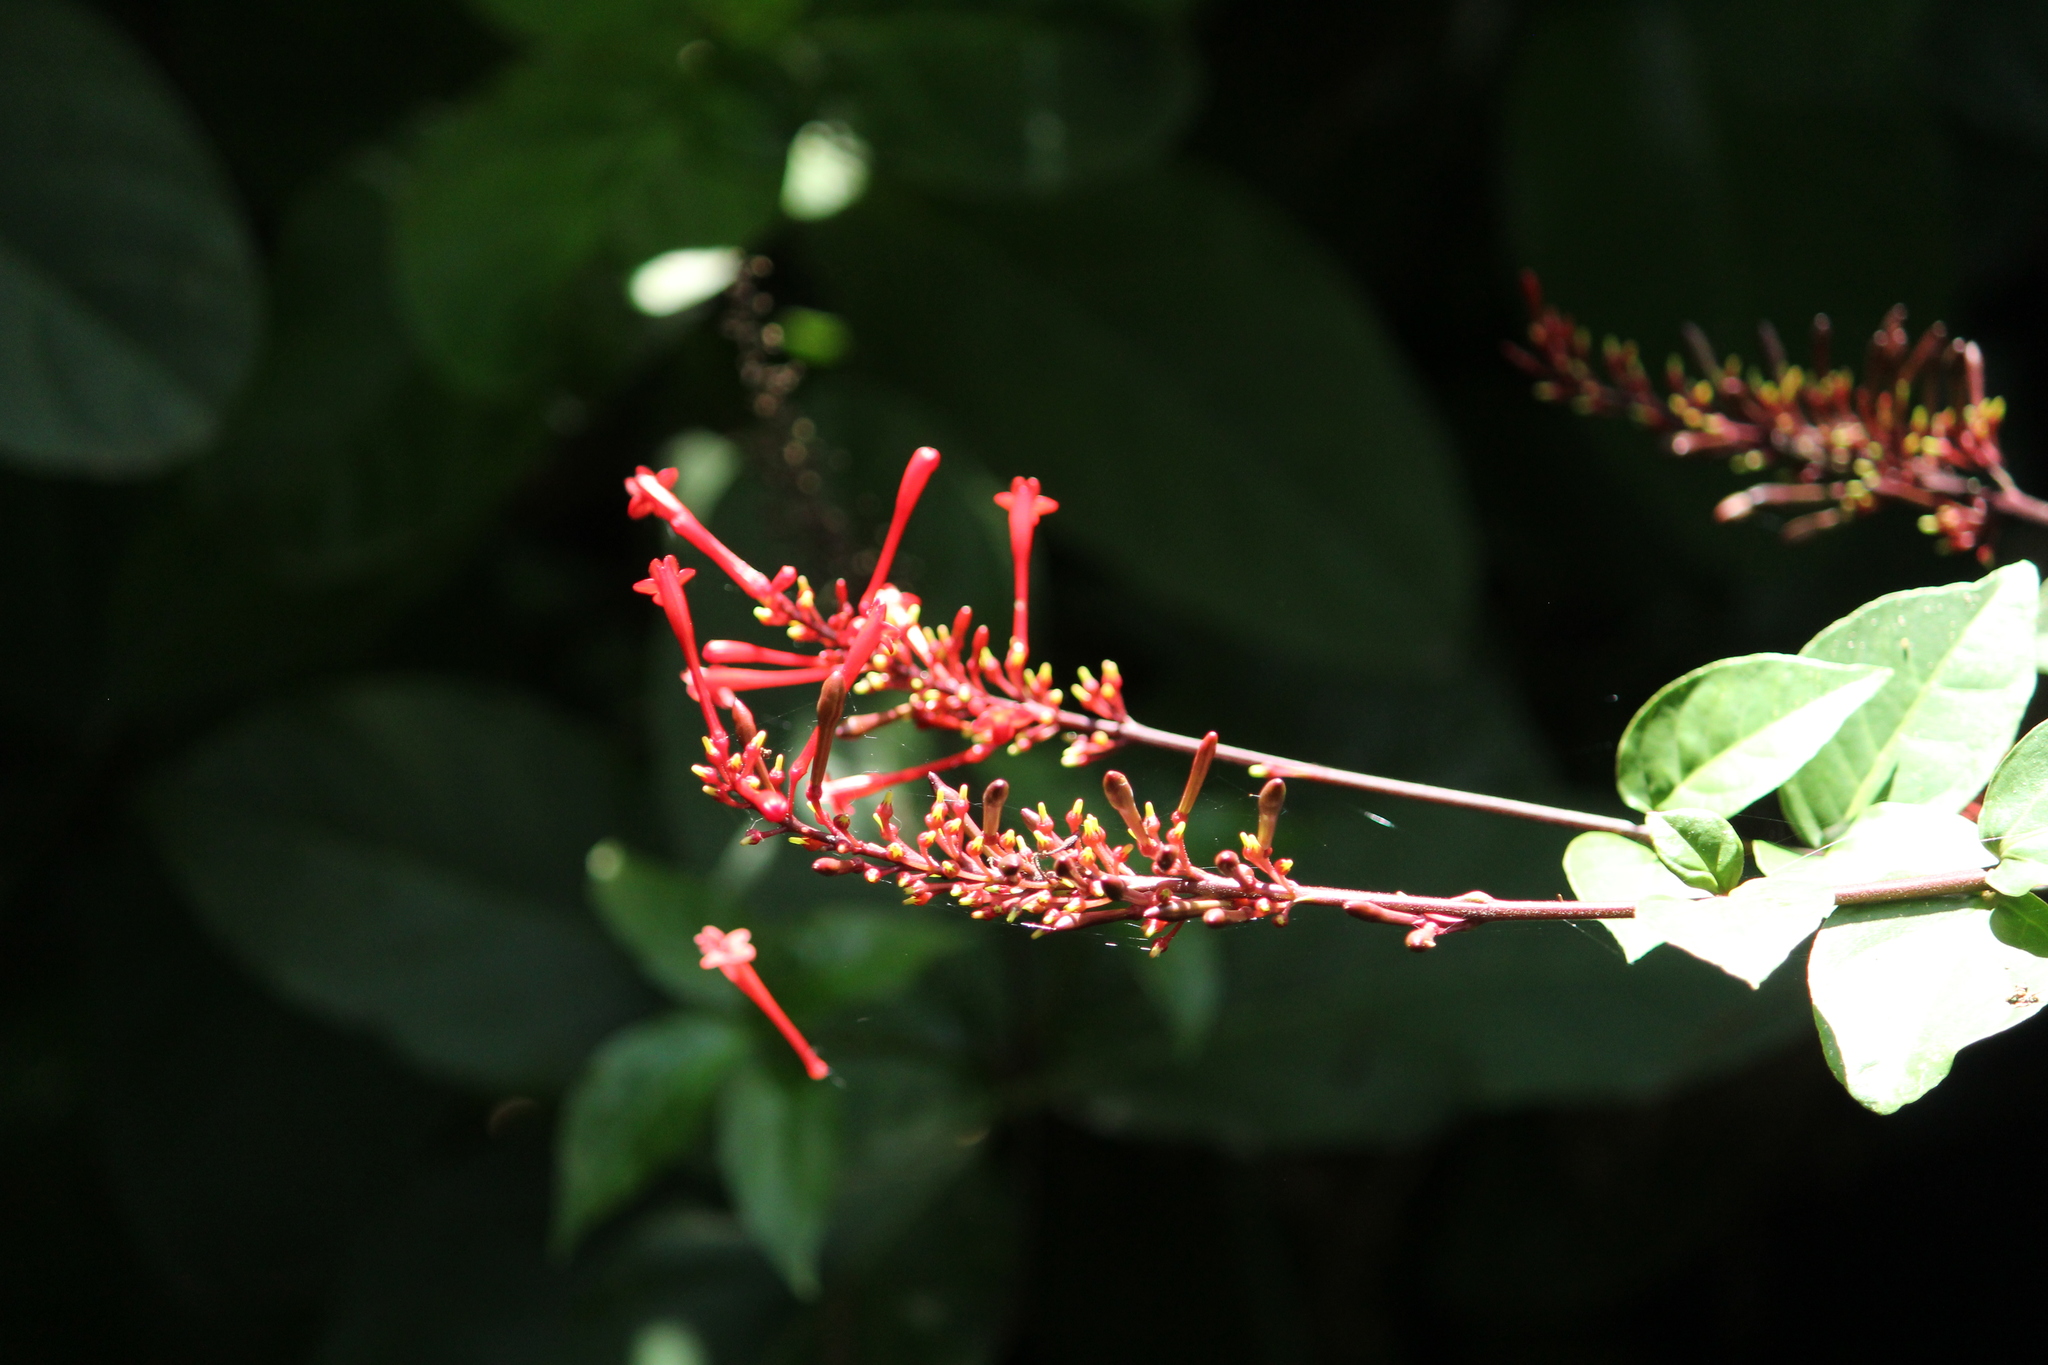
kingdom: Plantae
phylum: Tracheophyta
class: Magnoliopsida
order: Lamiales
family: Acanthaceae
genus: Odontonema
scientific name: Odontonema tubaeforme
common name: Firespike
